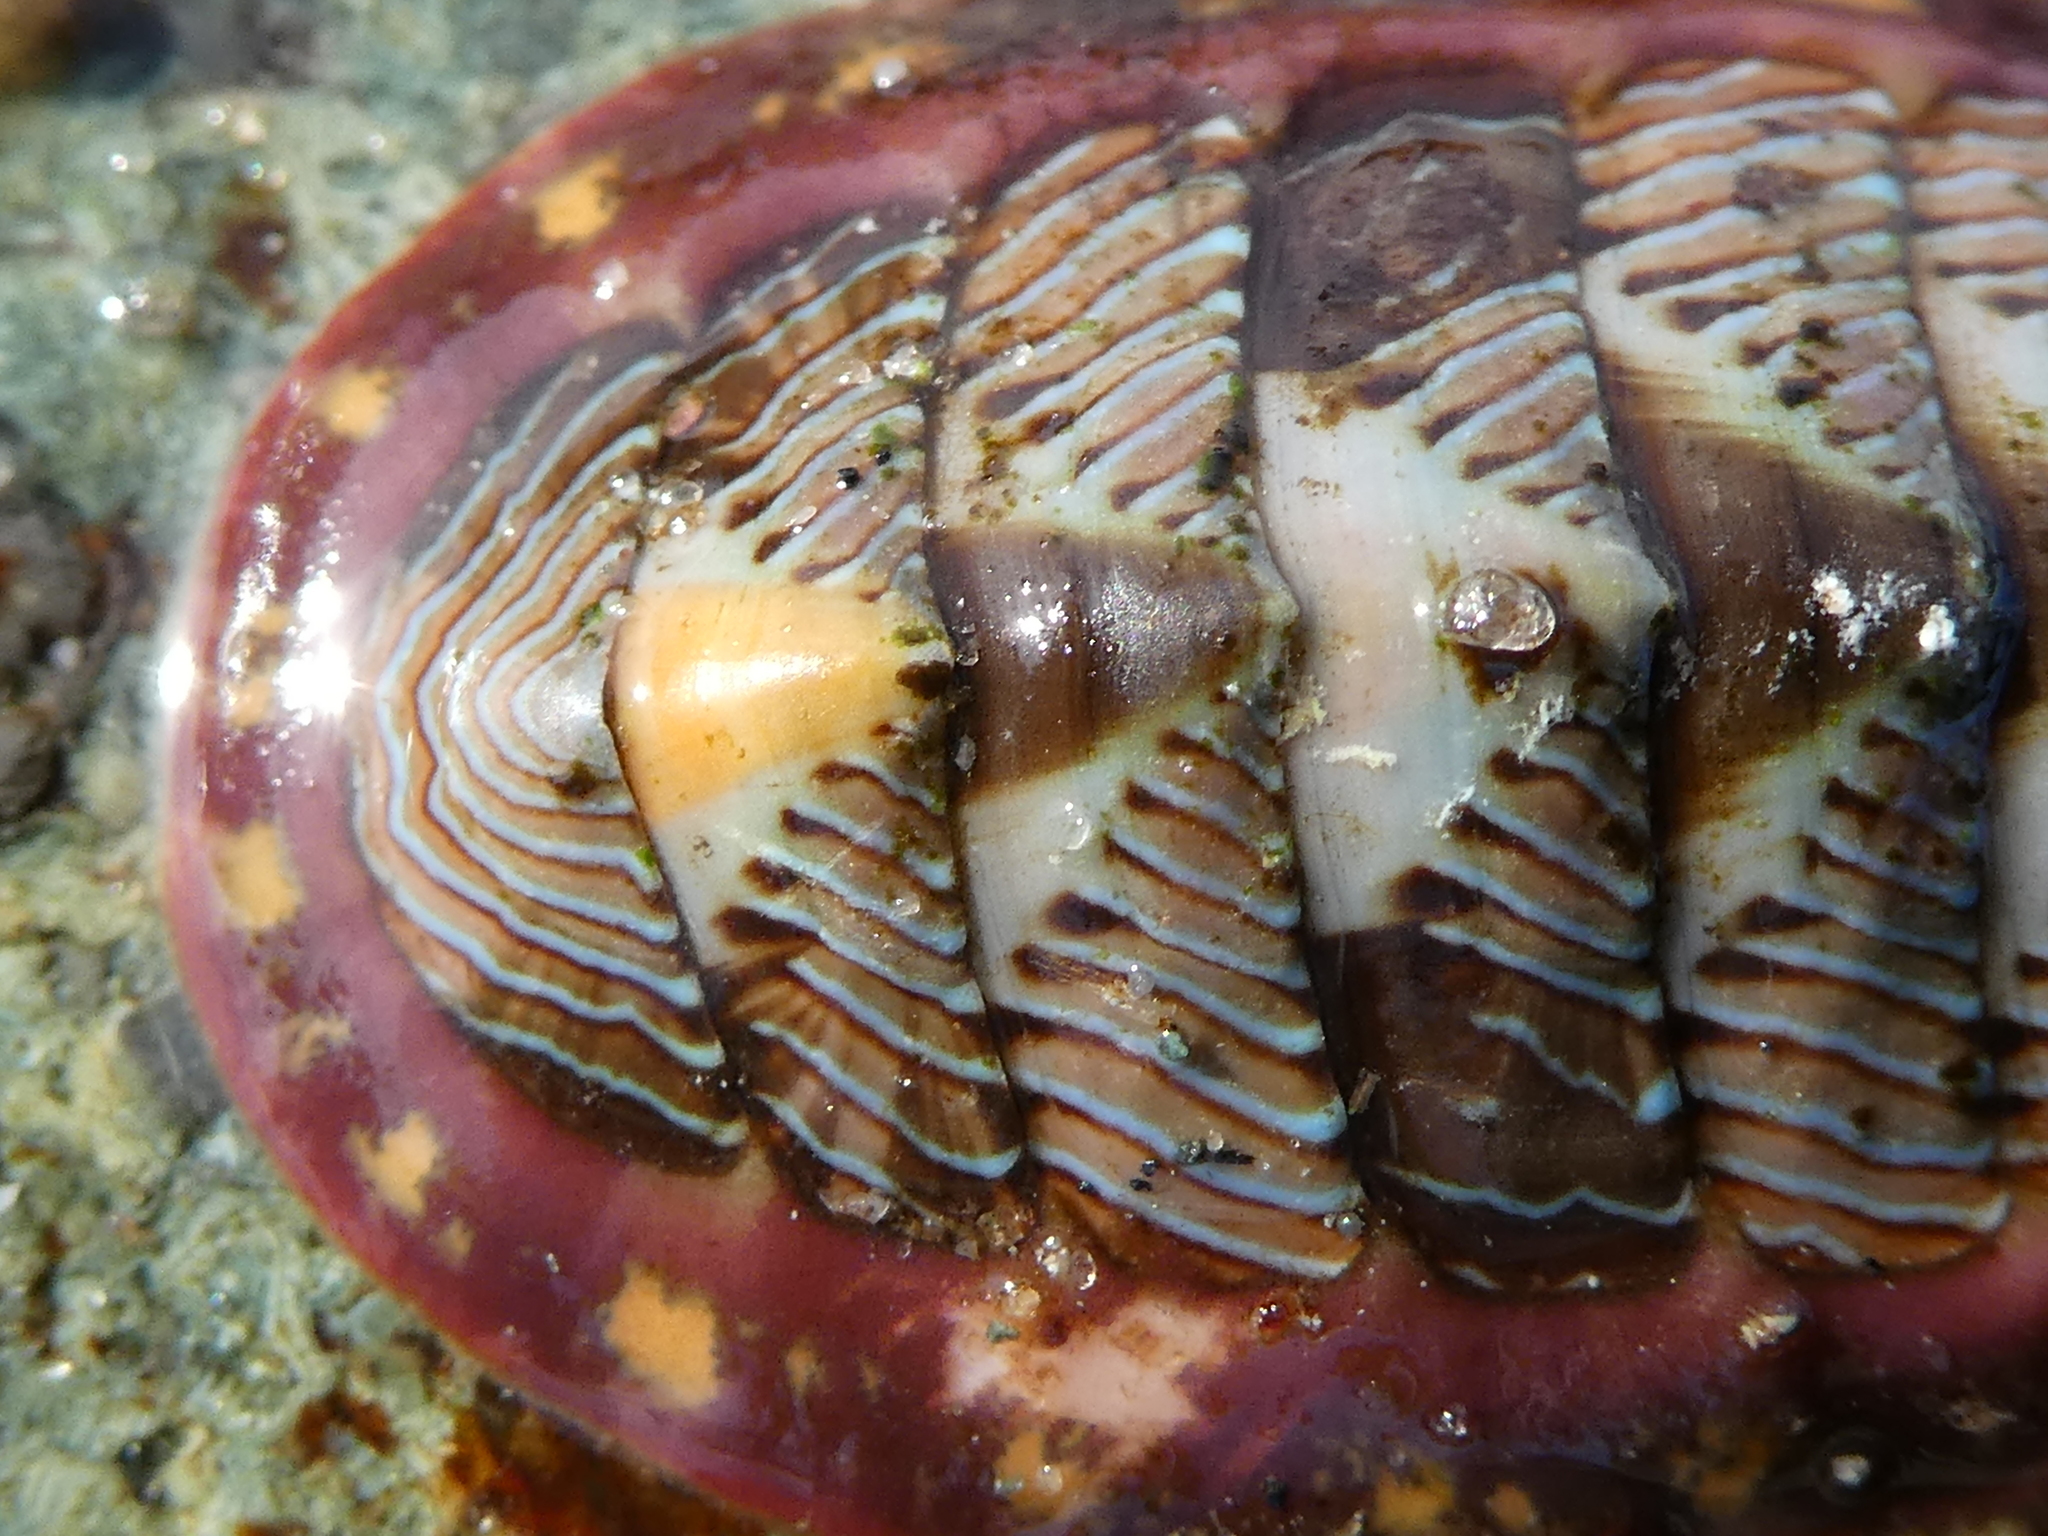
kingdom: Animalia
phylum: Mollusca
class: Polyplacophora
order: Chitonida
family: Tonicellidae
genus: Tonicella
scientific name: Tonicella lineata
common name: Lined chiton
